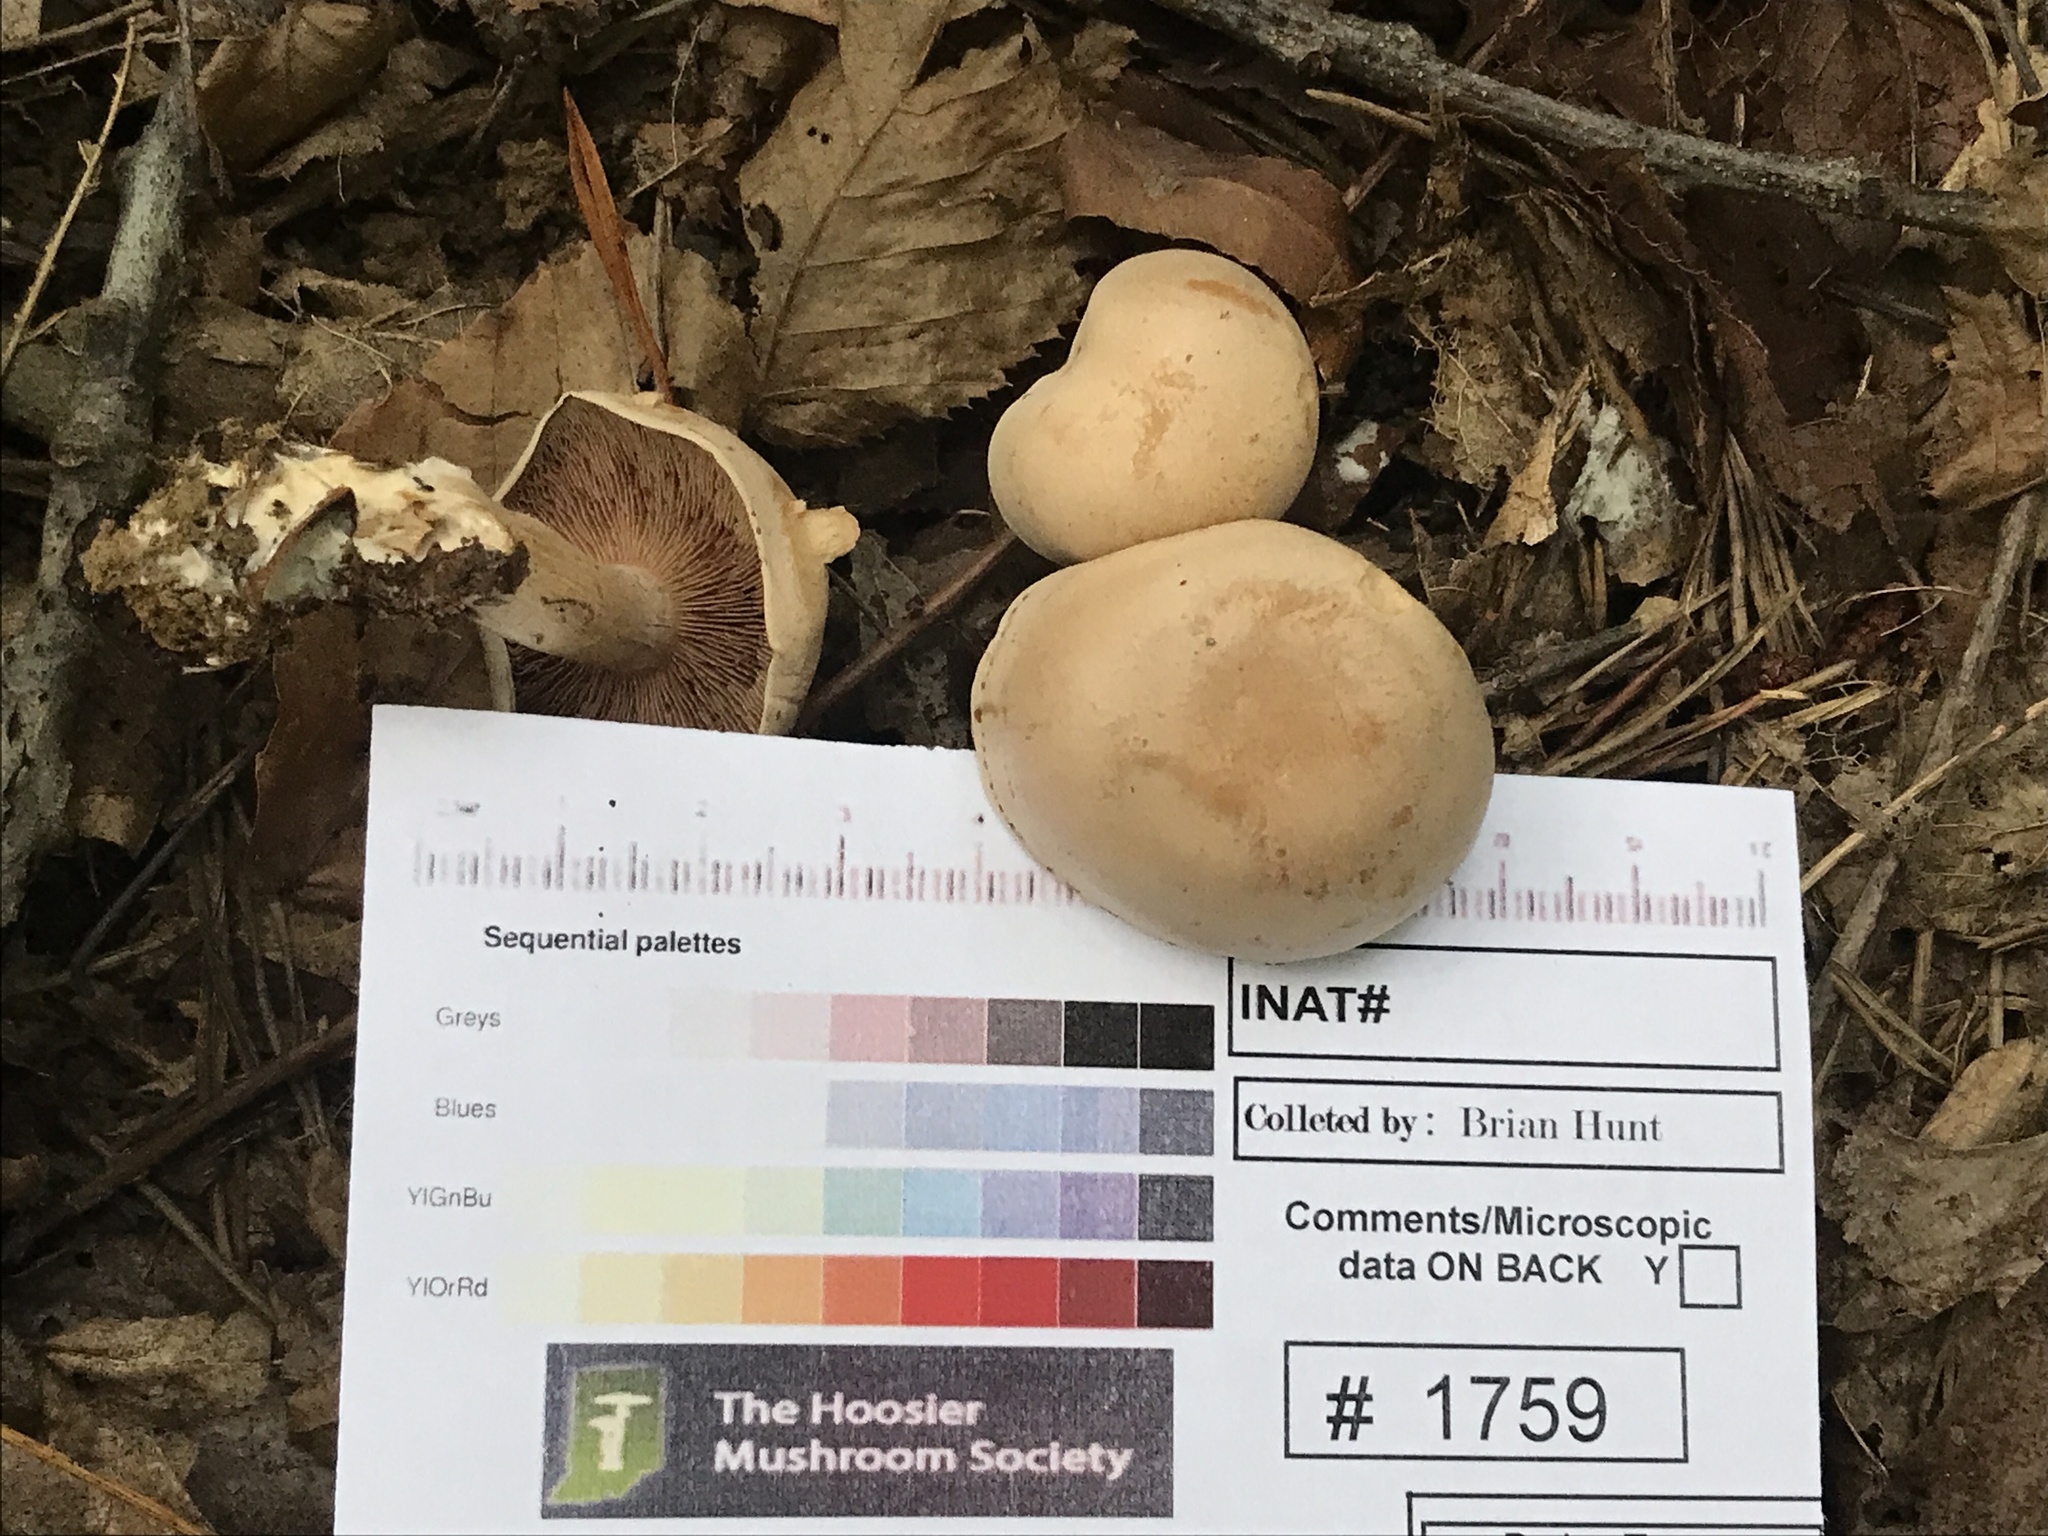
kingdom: Fungi
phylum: Basidiomycota
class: Agaricomycetes
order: Agaricales
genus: Hertzogia
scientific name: Hertzogia martiorum
